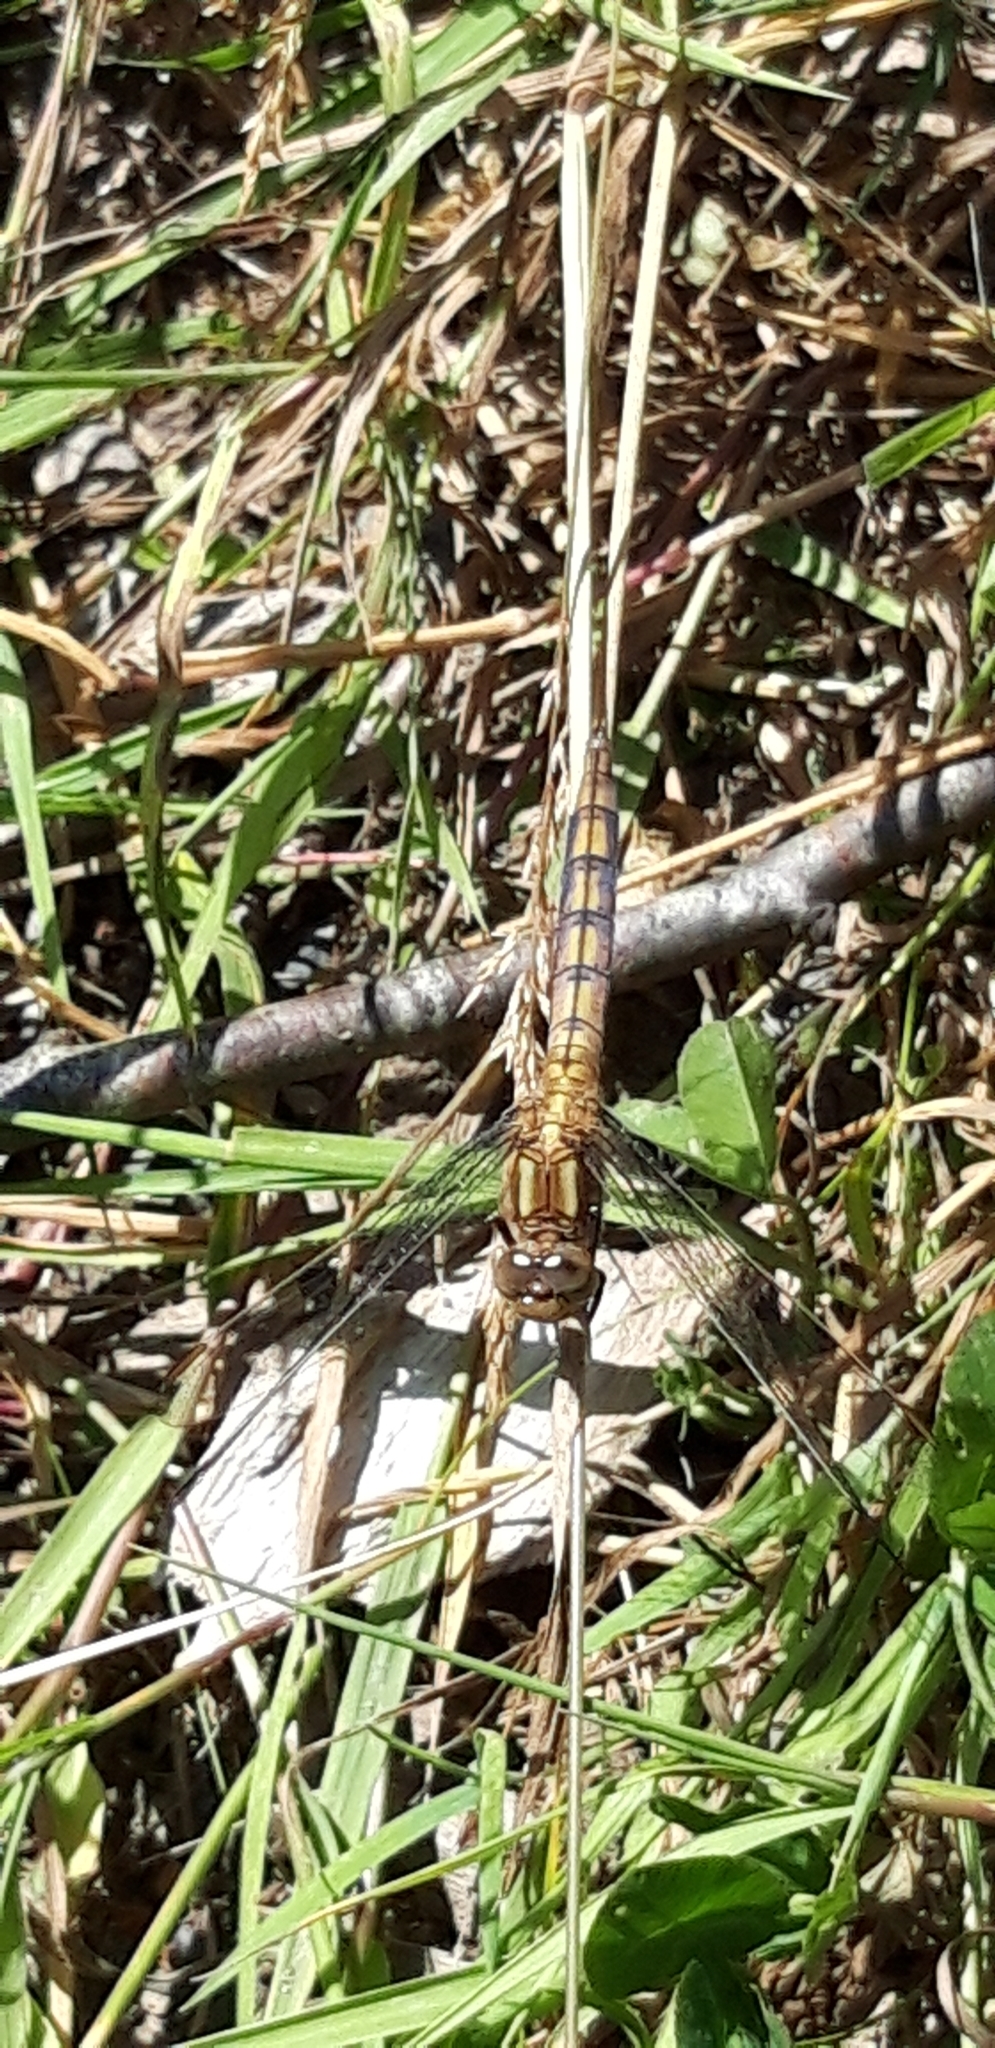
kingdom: Animalia
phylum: Arthropoda
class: Insecta
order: Odonata
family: Libellulidae
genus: Orthetrum
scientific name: Orthetrum coerulescens
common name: Keeled skimmer
